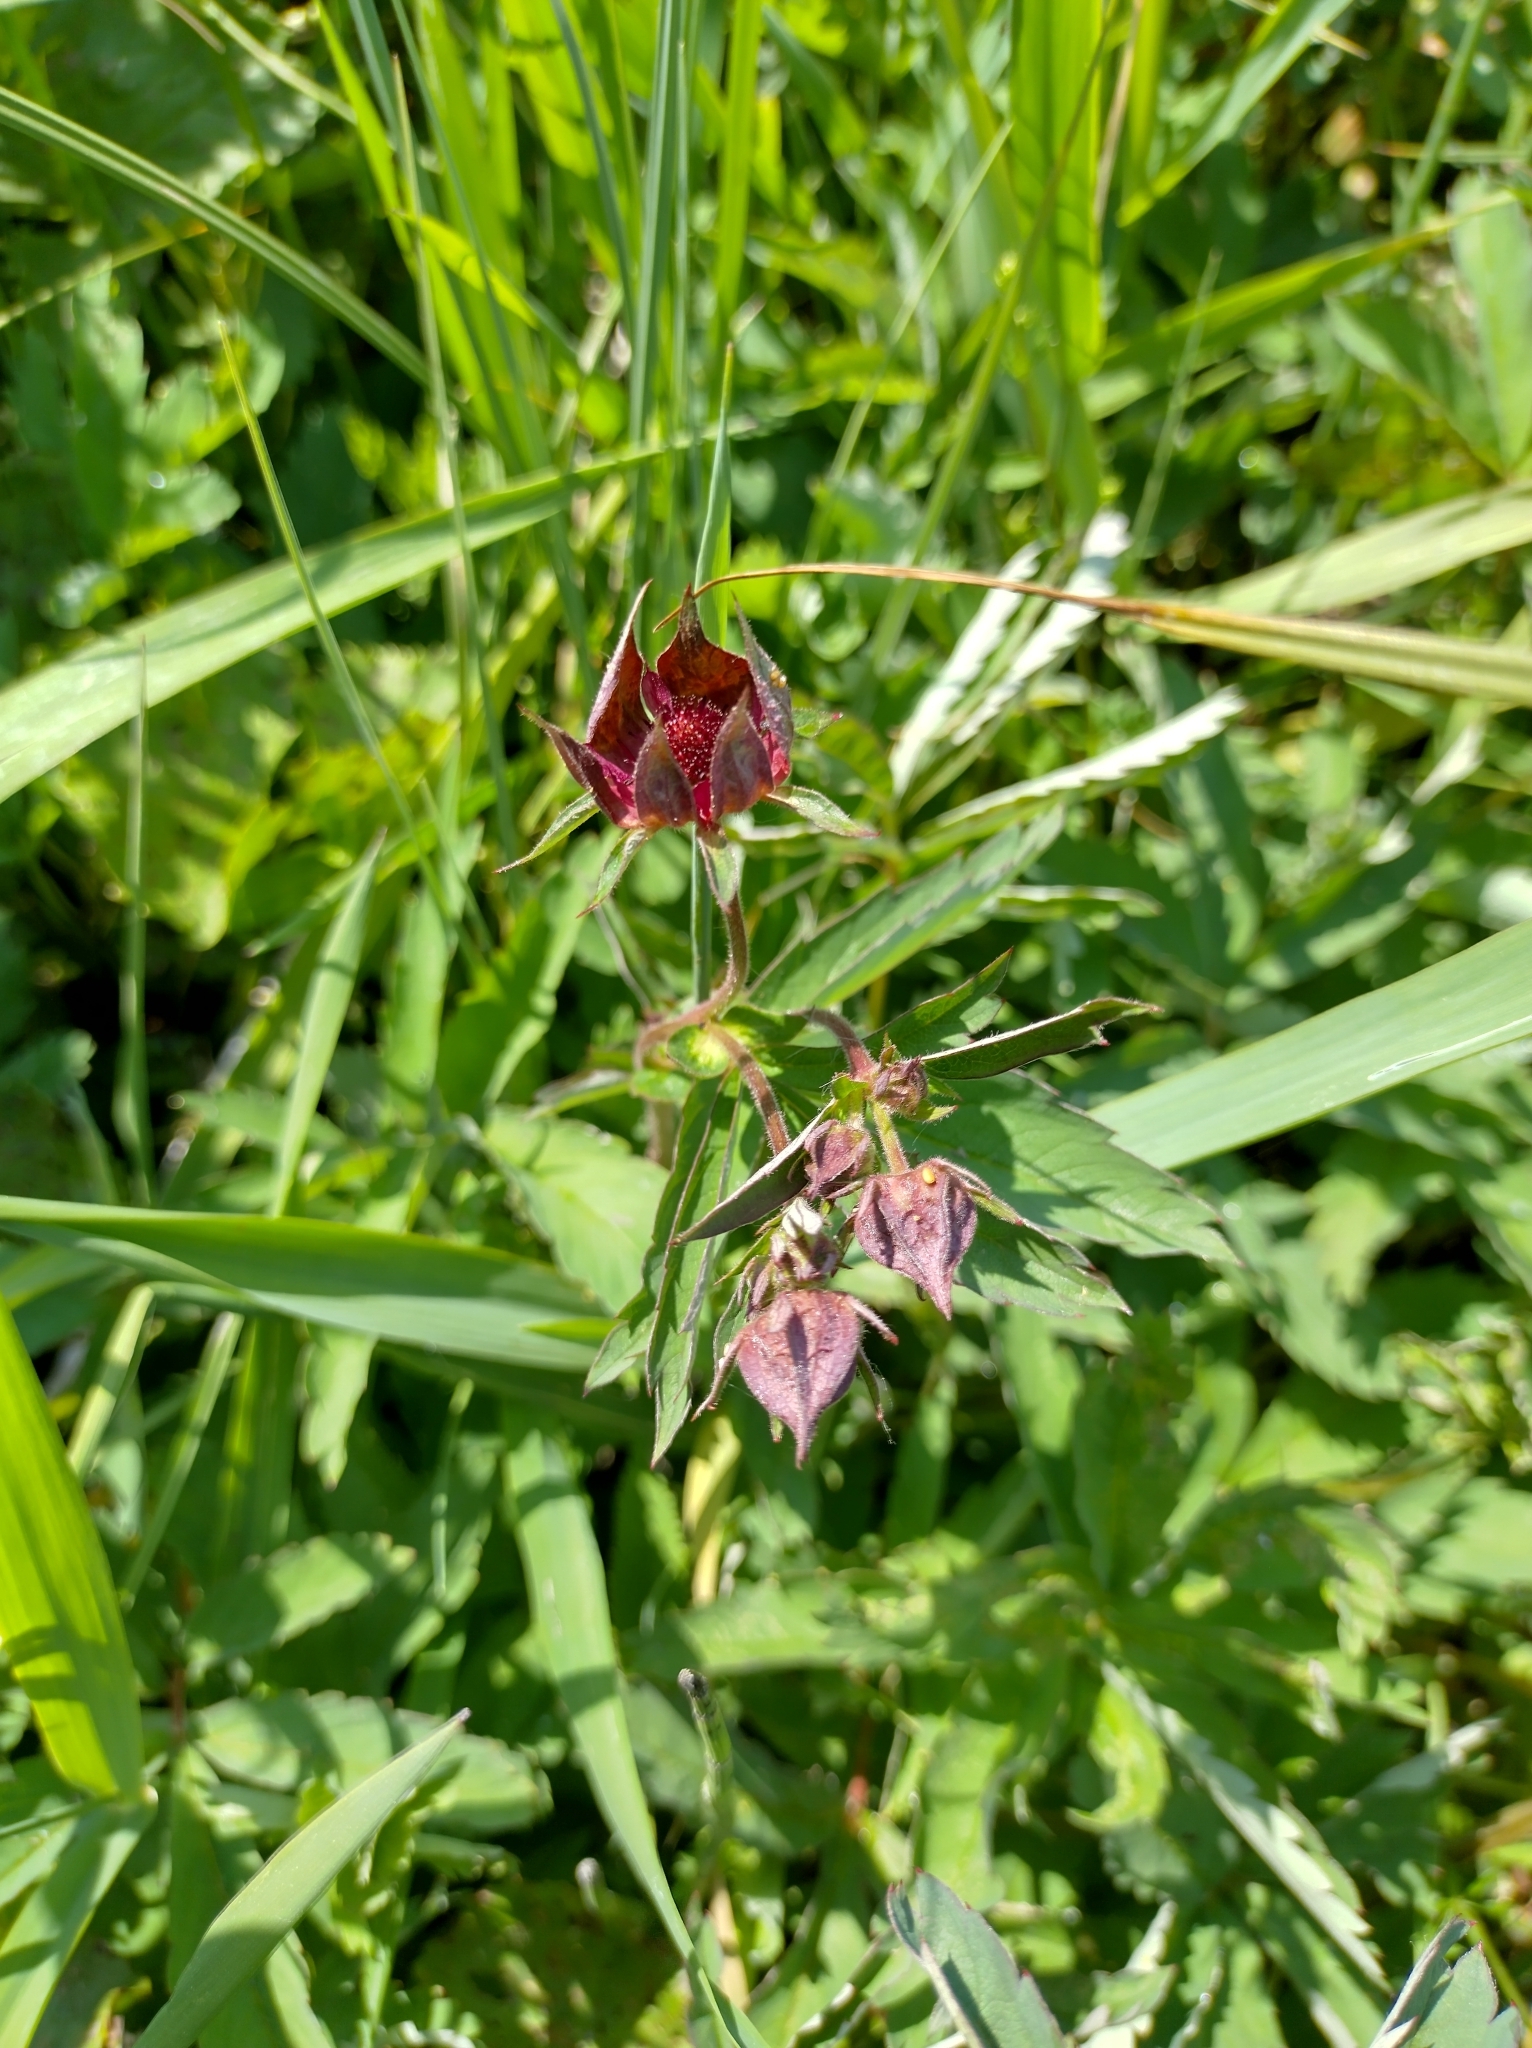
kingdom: Plantae
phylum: Tracheophyta
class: Magnoliopsida
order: Rosales
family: Rosaceae
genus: Comarum
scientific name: Comarum palustre
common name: Marsh cinquefoil
